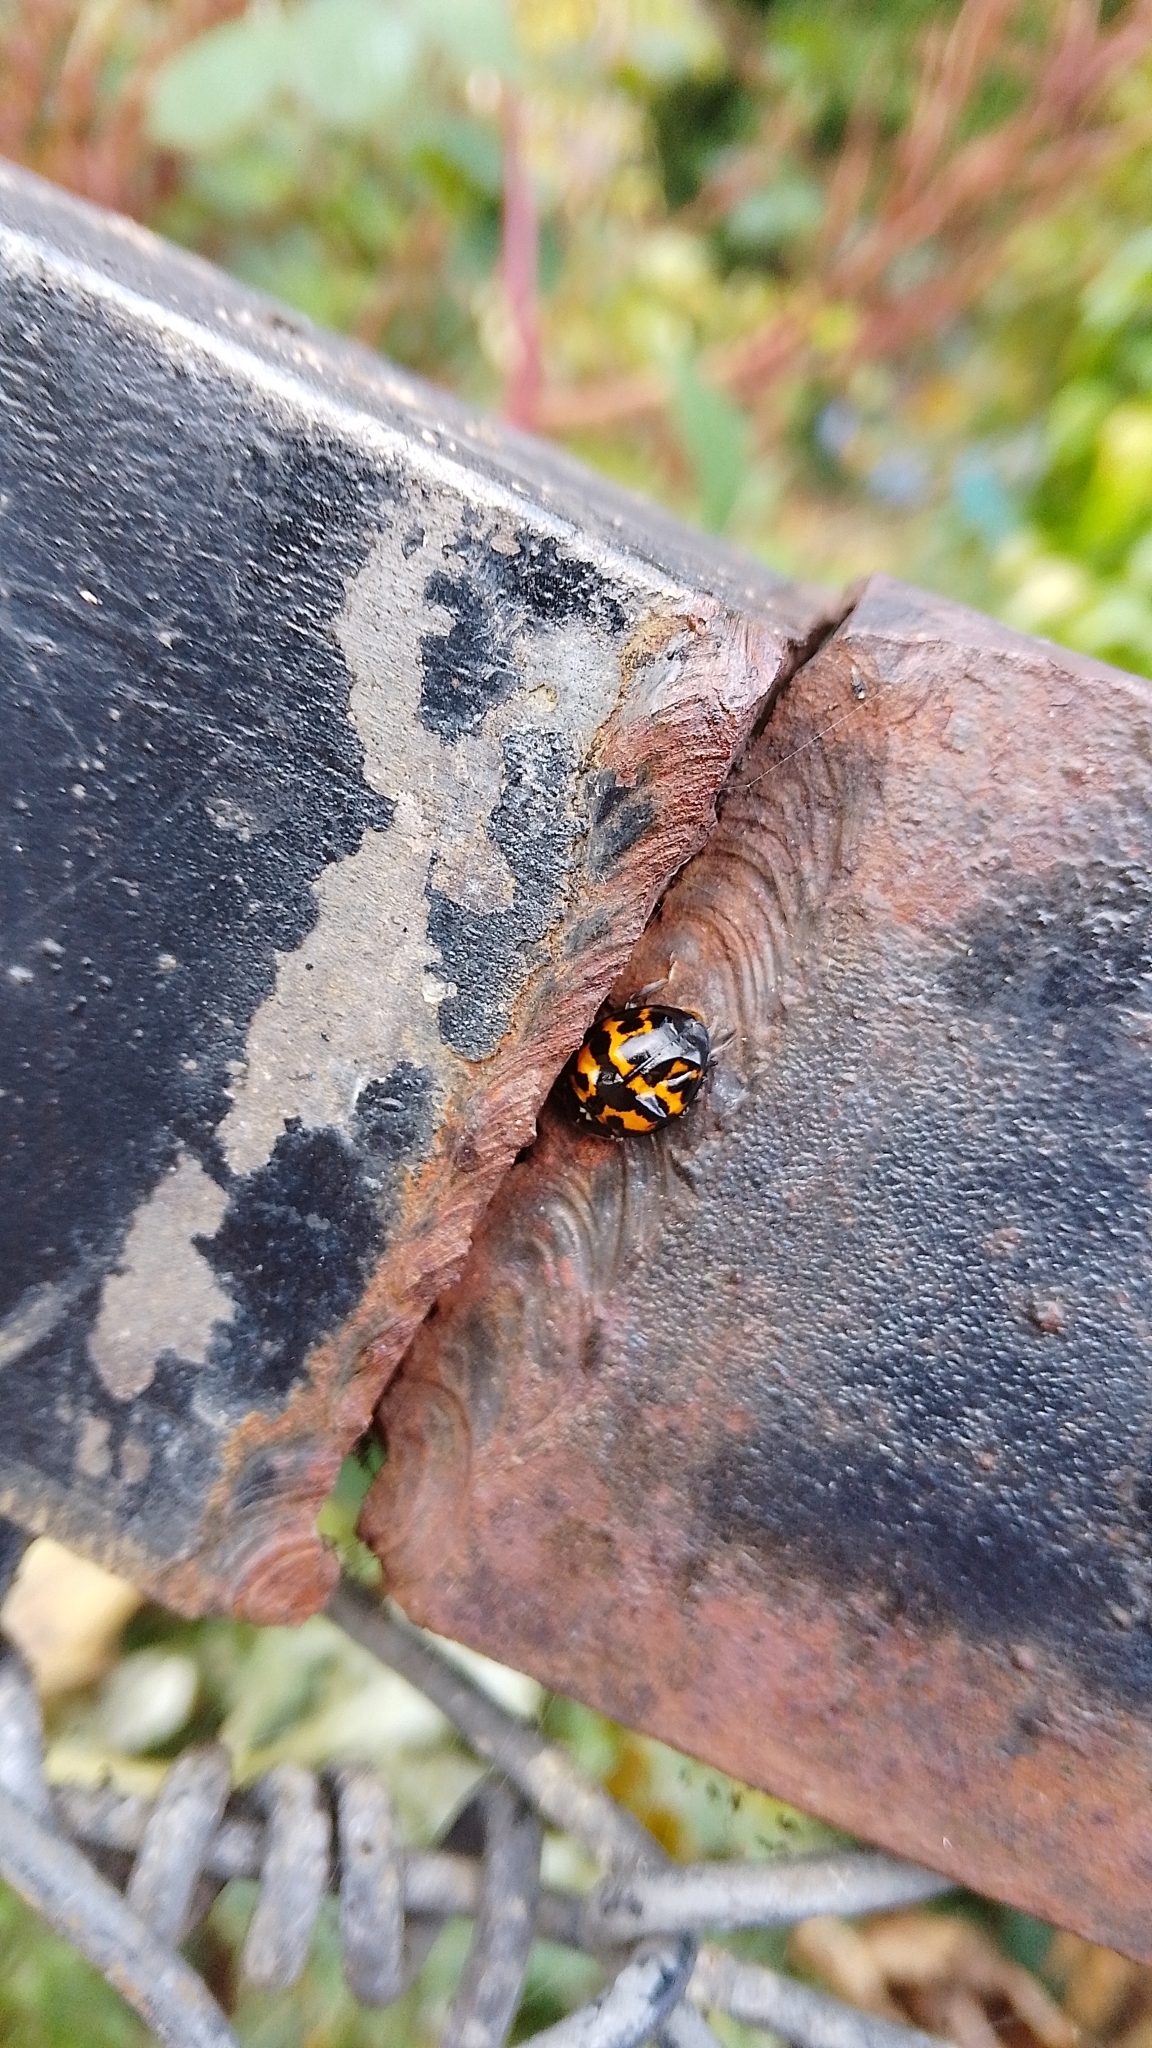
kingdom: Animalia
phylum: Arthropoda
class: Insecta
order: Coleoptera
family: Coccinellidae
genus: Harmonia
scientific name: Harmonia axyridis
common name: Harlequin ladybird
